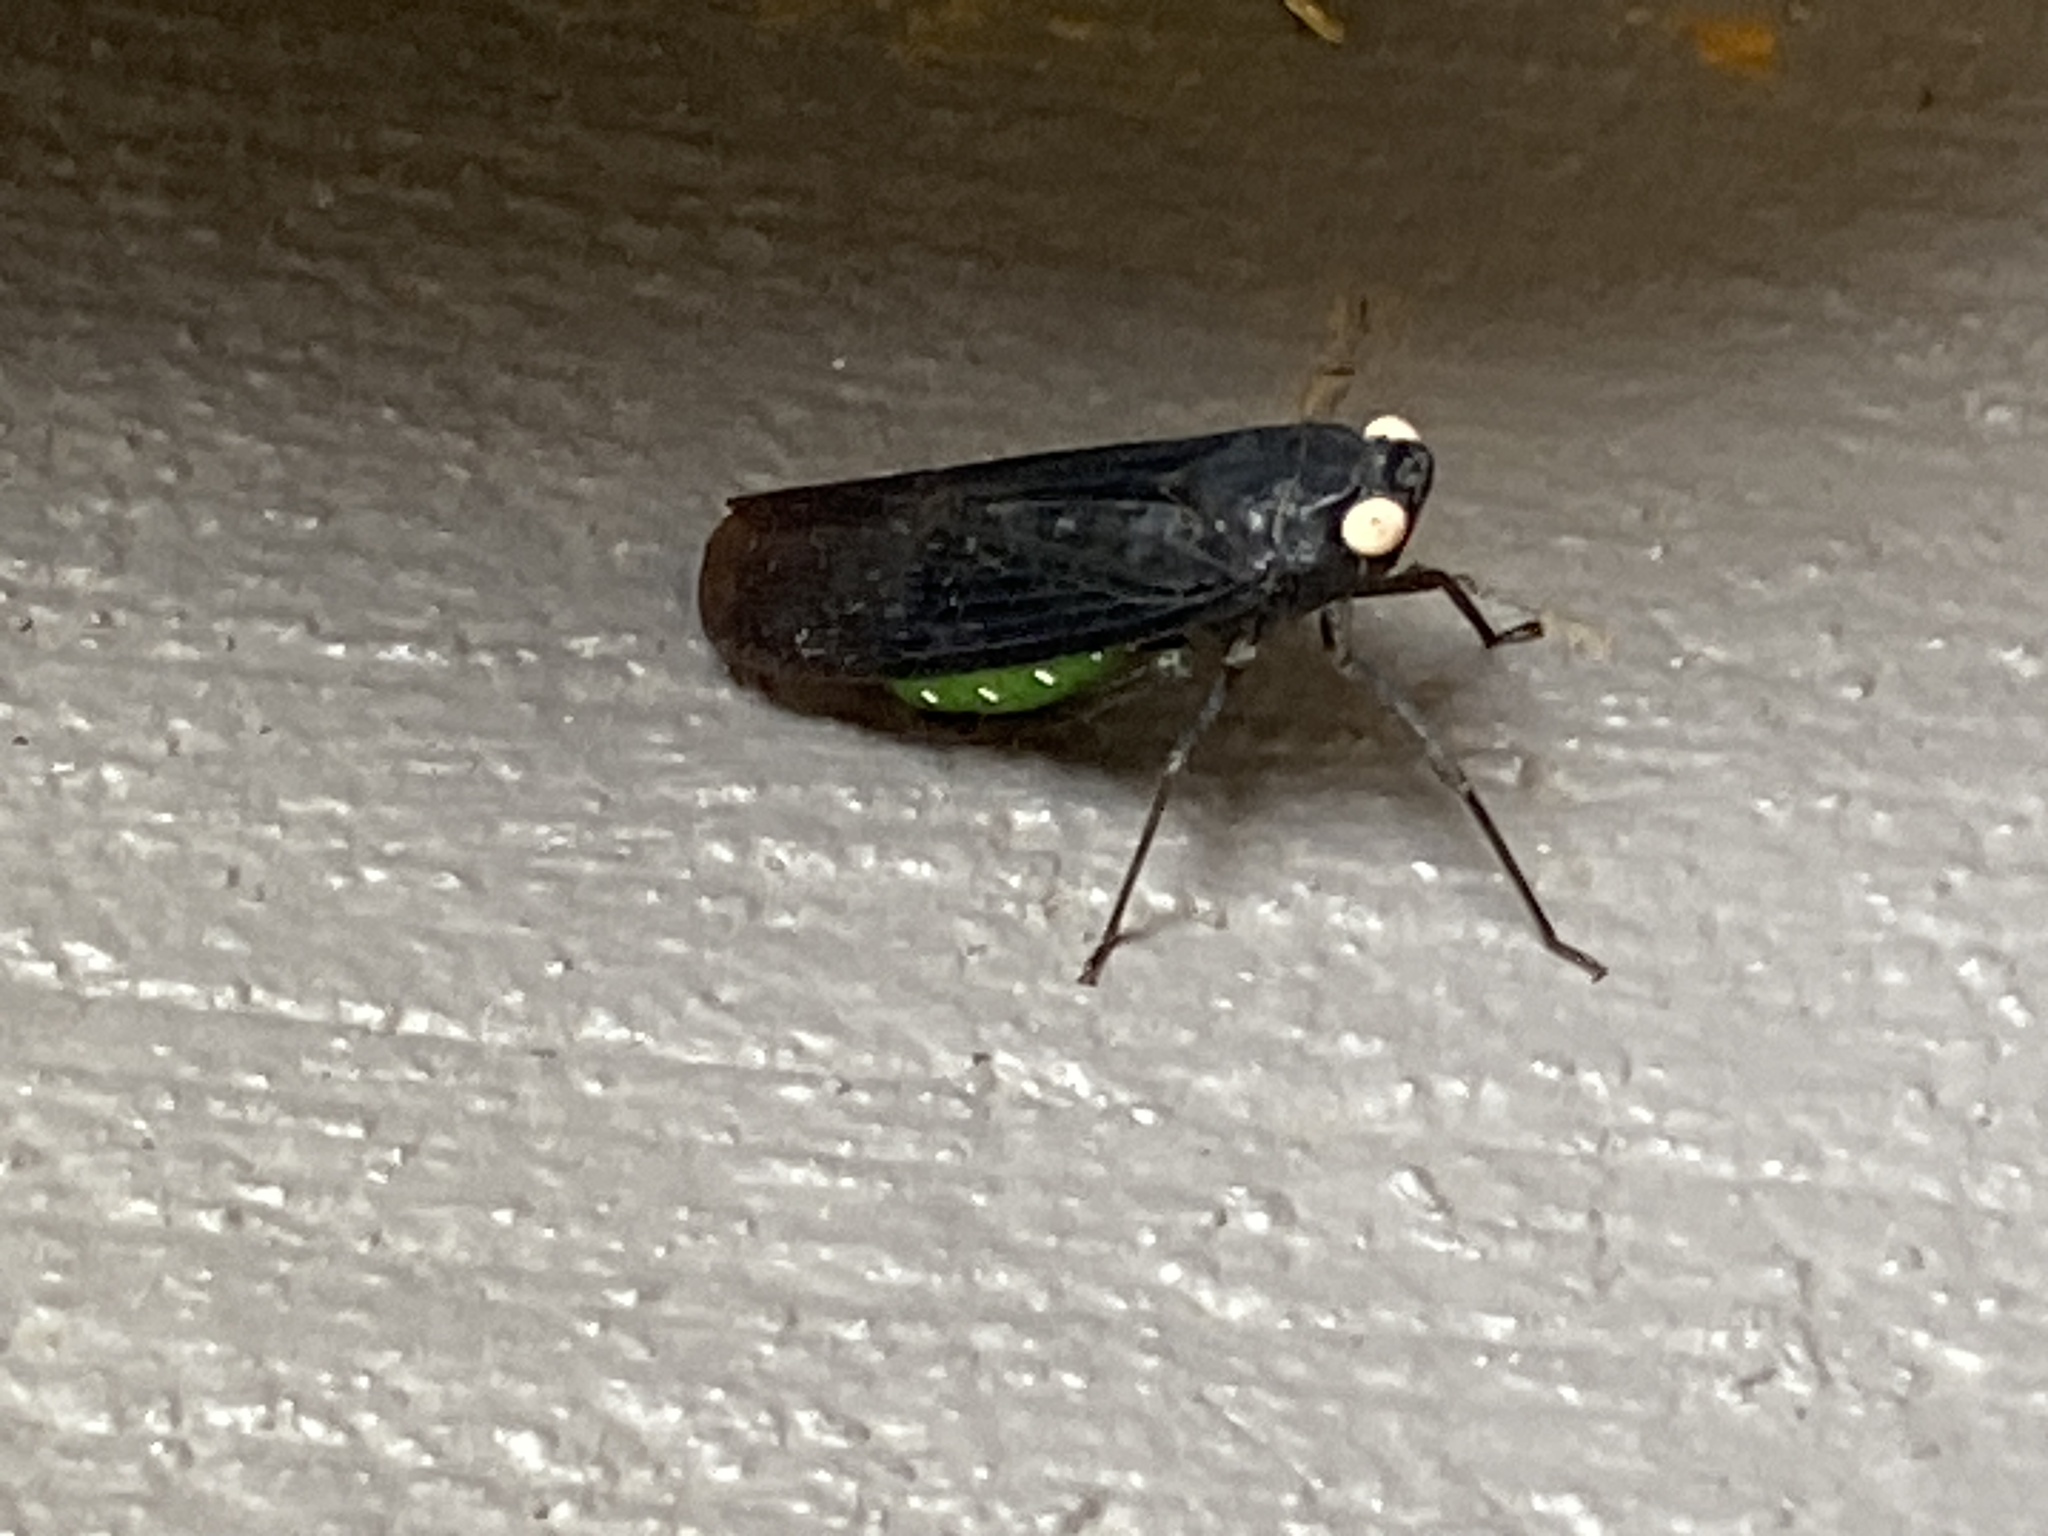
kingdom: Animalia
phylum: Arthropoda
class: Insecta
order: Hemiptera
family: Fulgoridae
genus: Desudaba
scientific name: Desudaba psittacus
